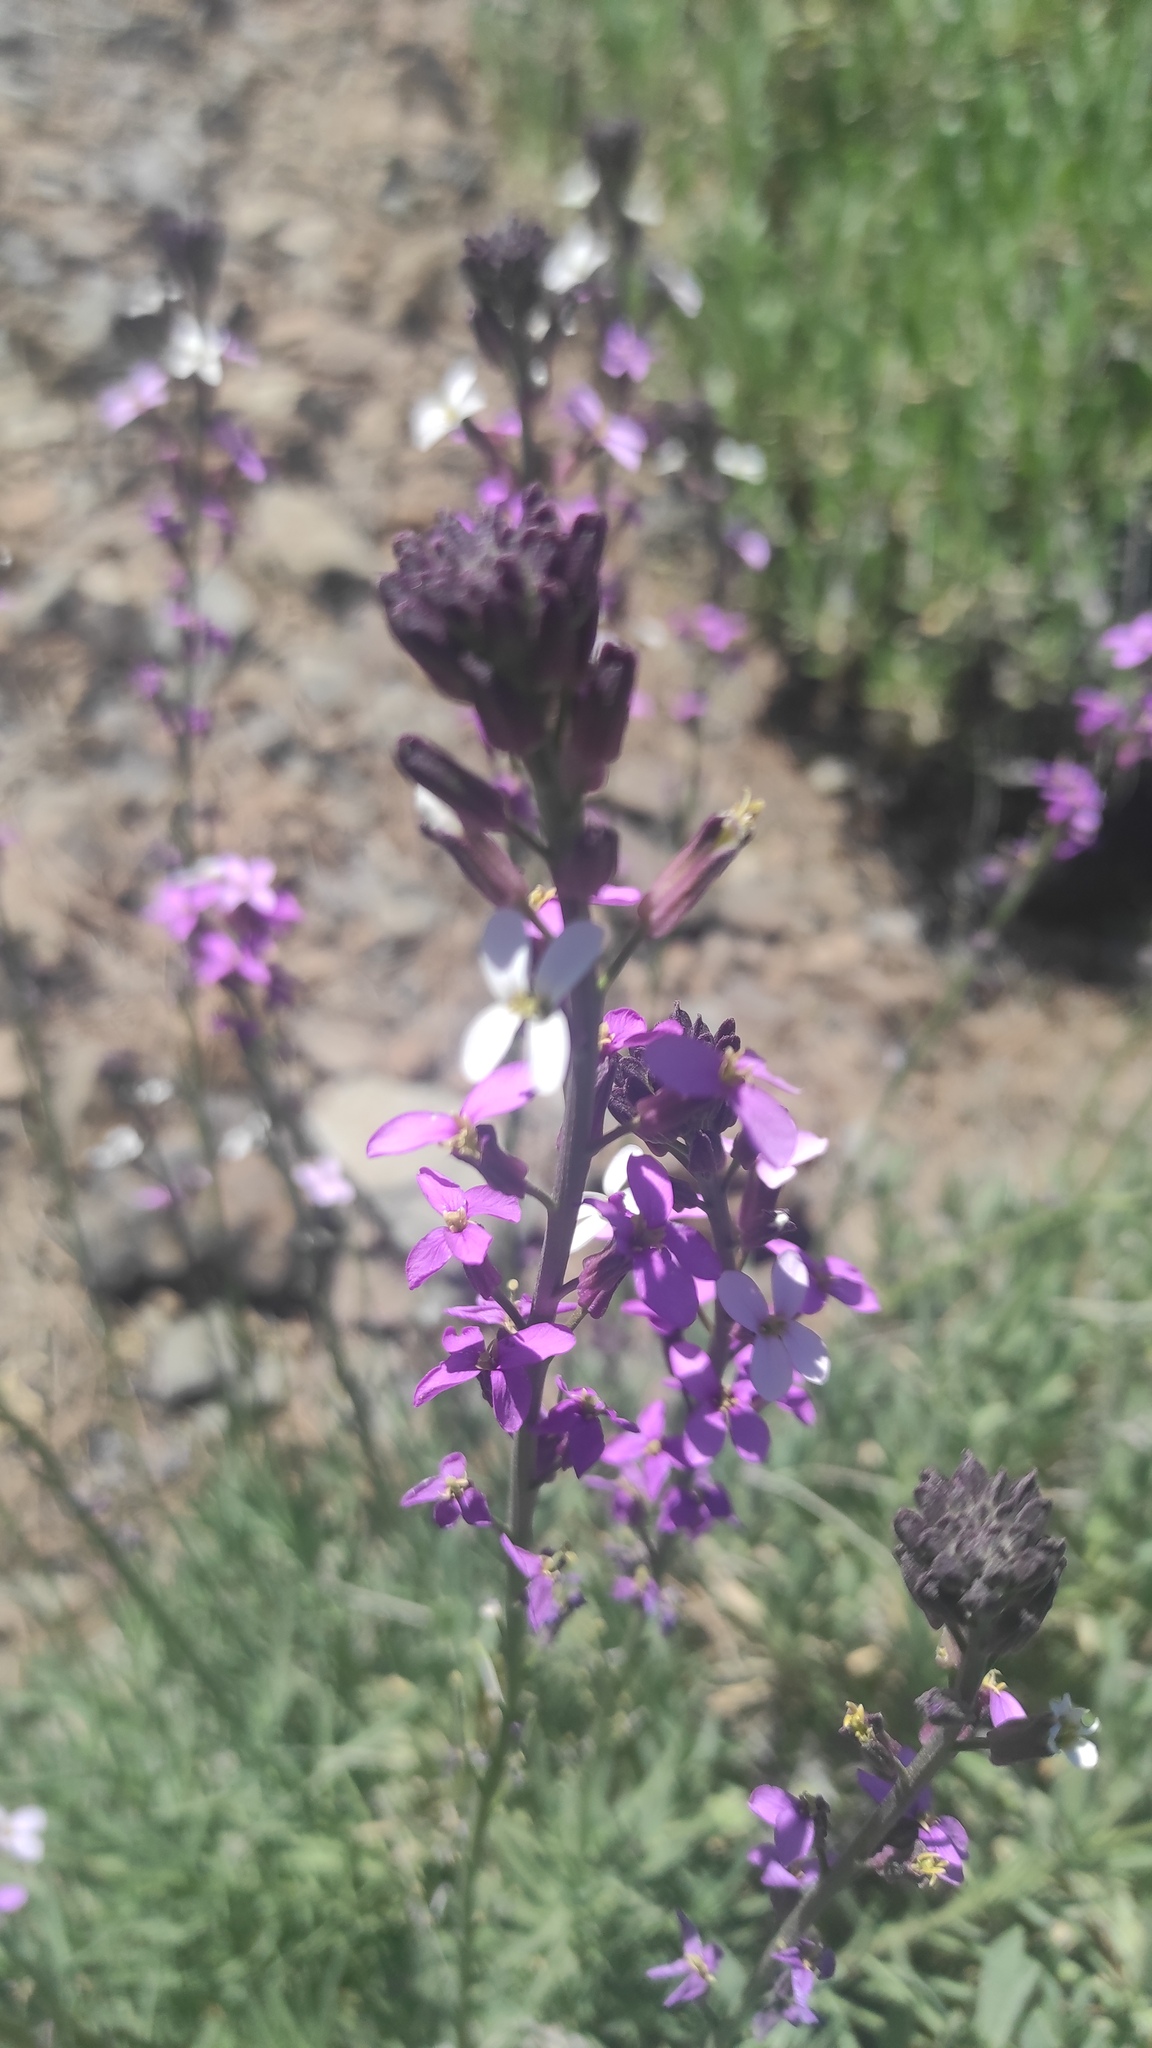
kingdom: Plantae
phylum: Tracheophyta
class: Magnoliopsida
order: Brassicales
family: Brassicaceae
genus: Erysimum
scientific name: Erysimum scoparium
